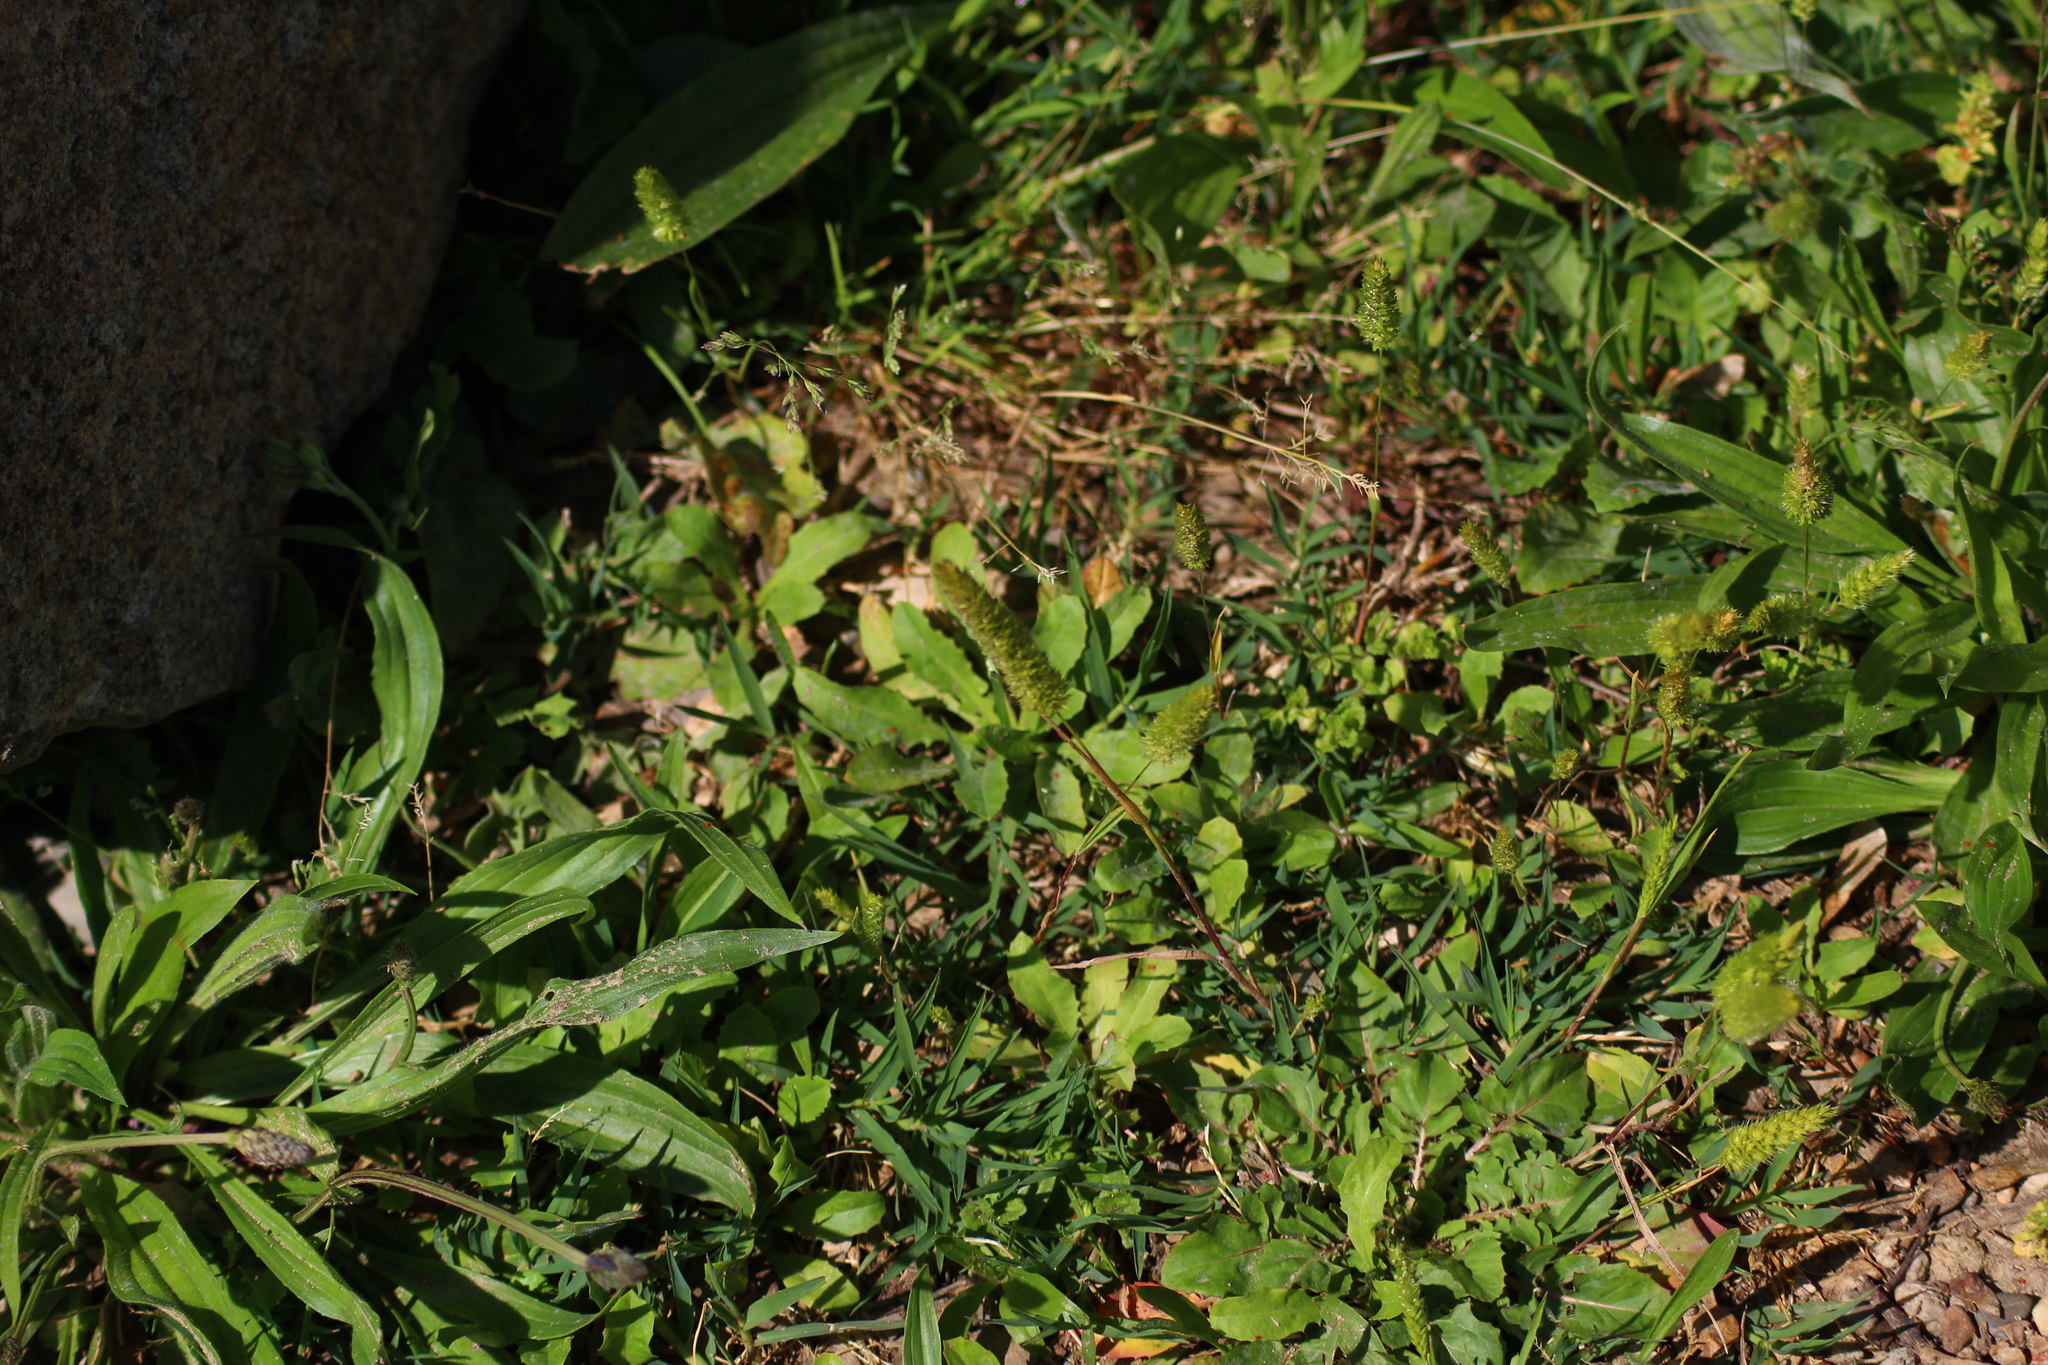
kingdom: Plantae
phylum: Tracheophyta
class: Liliopsida
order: Poales
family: Poaceae
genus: Rostraria
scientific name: Rostraria cristata
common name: Mediterranean hair-grass
